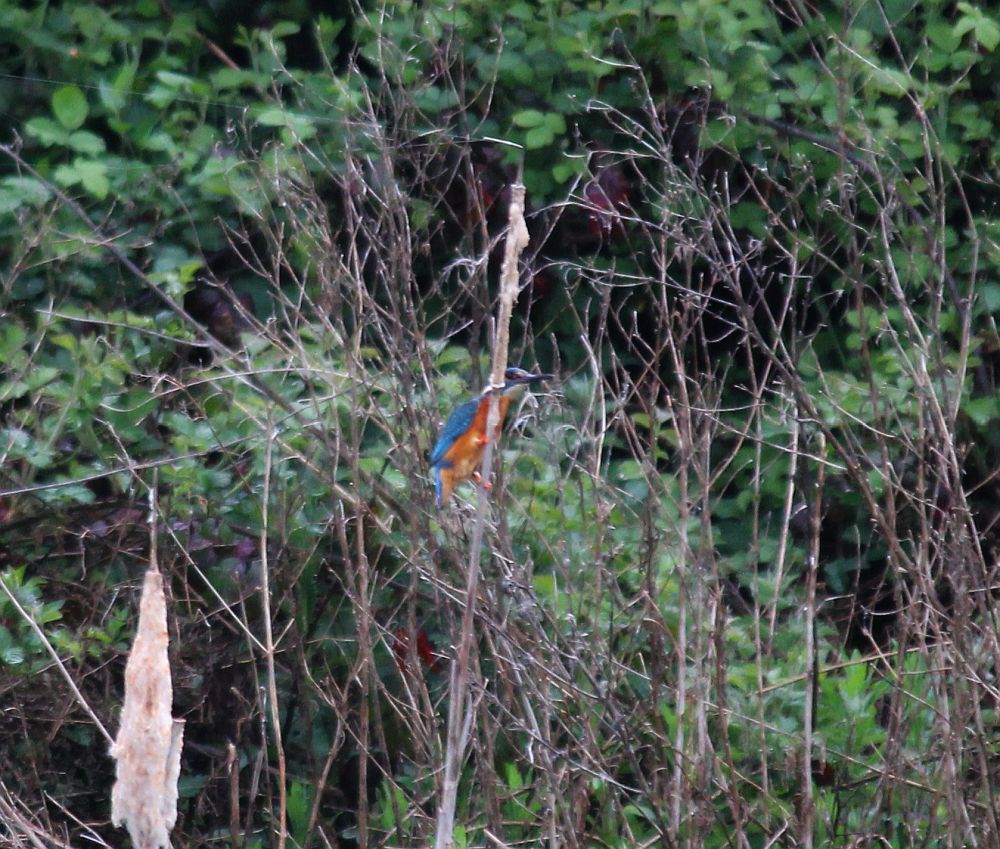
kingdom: Animalia
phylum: Chordata
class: Aves
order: Coraciiformes
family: Alcedinidae
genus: Alcedo
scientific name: Alcedo atthis
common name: Common kingfisher
